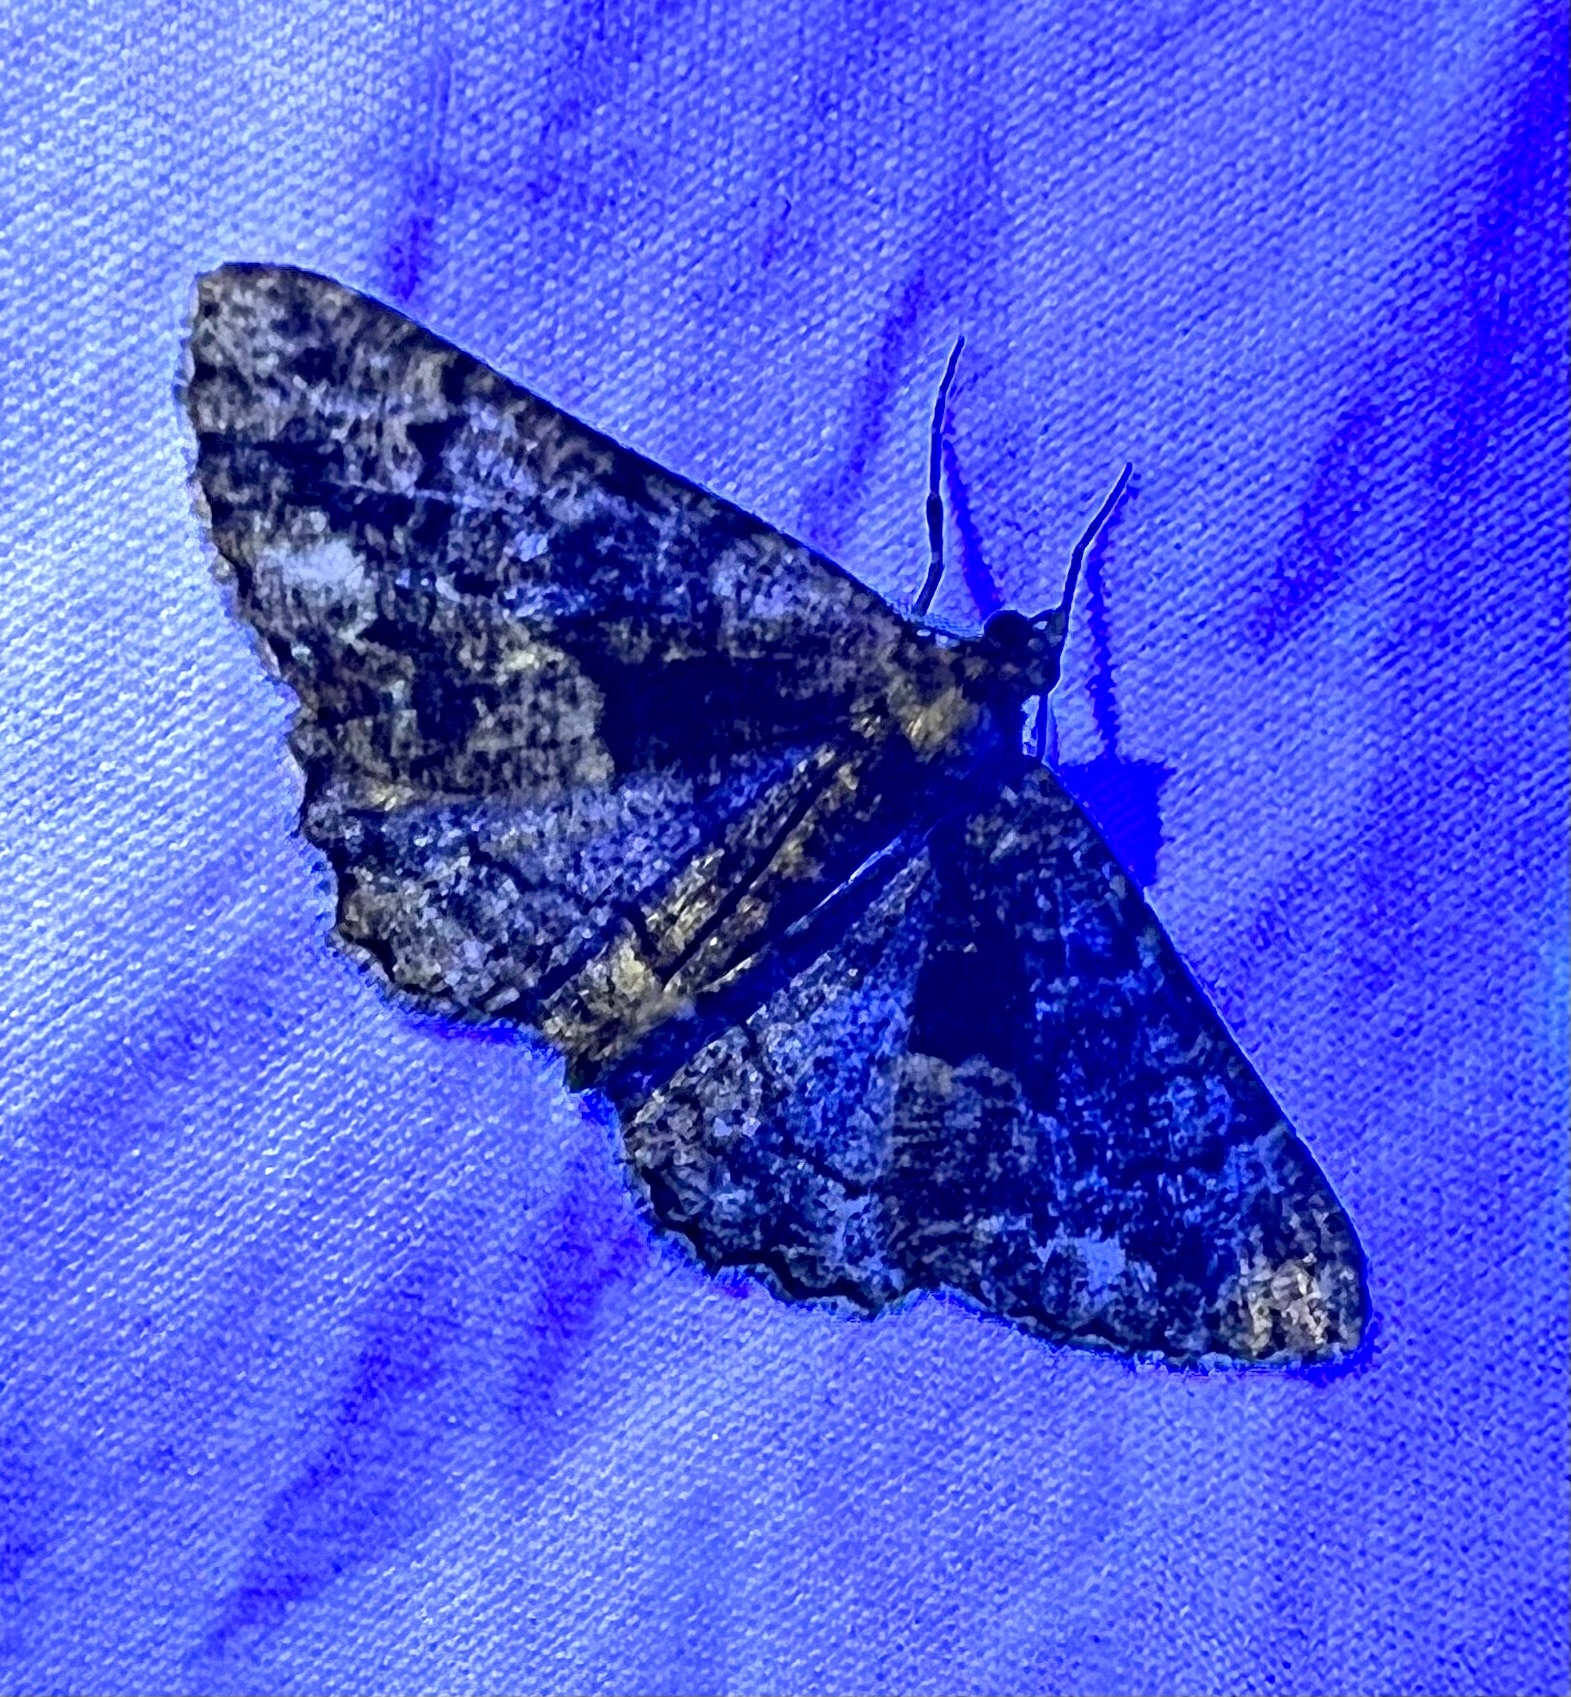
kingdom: Animalia
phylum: Arthropoda
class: Insecta
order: Lepidoptera
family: Geometridae
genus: Peribatodes
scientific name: Peribatodes ilicaria
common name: Lydd beauty
